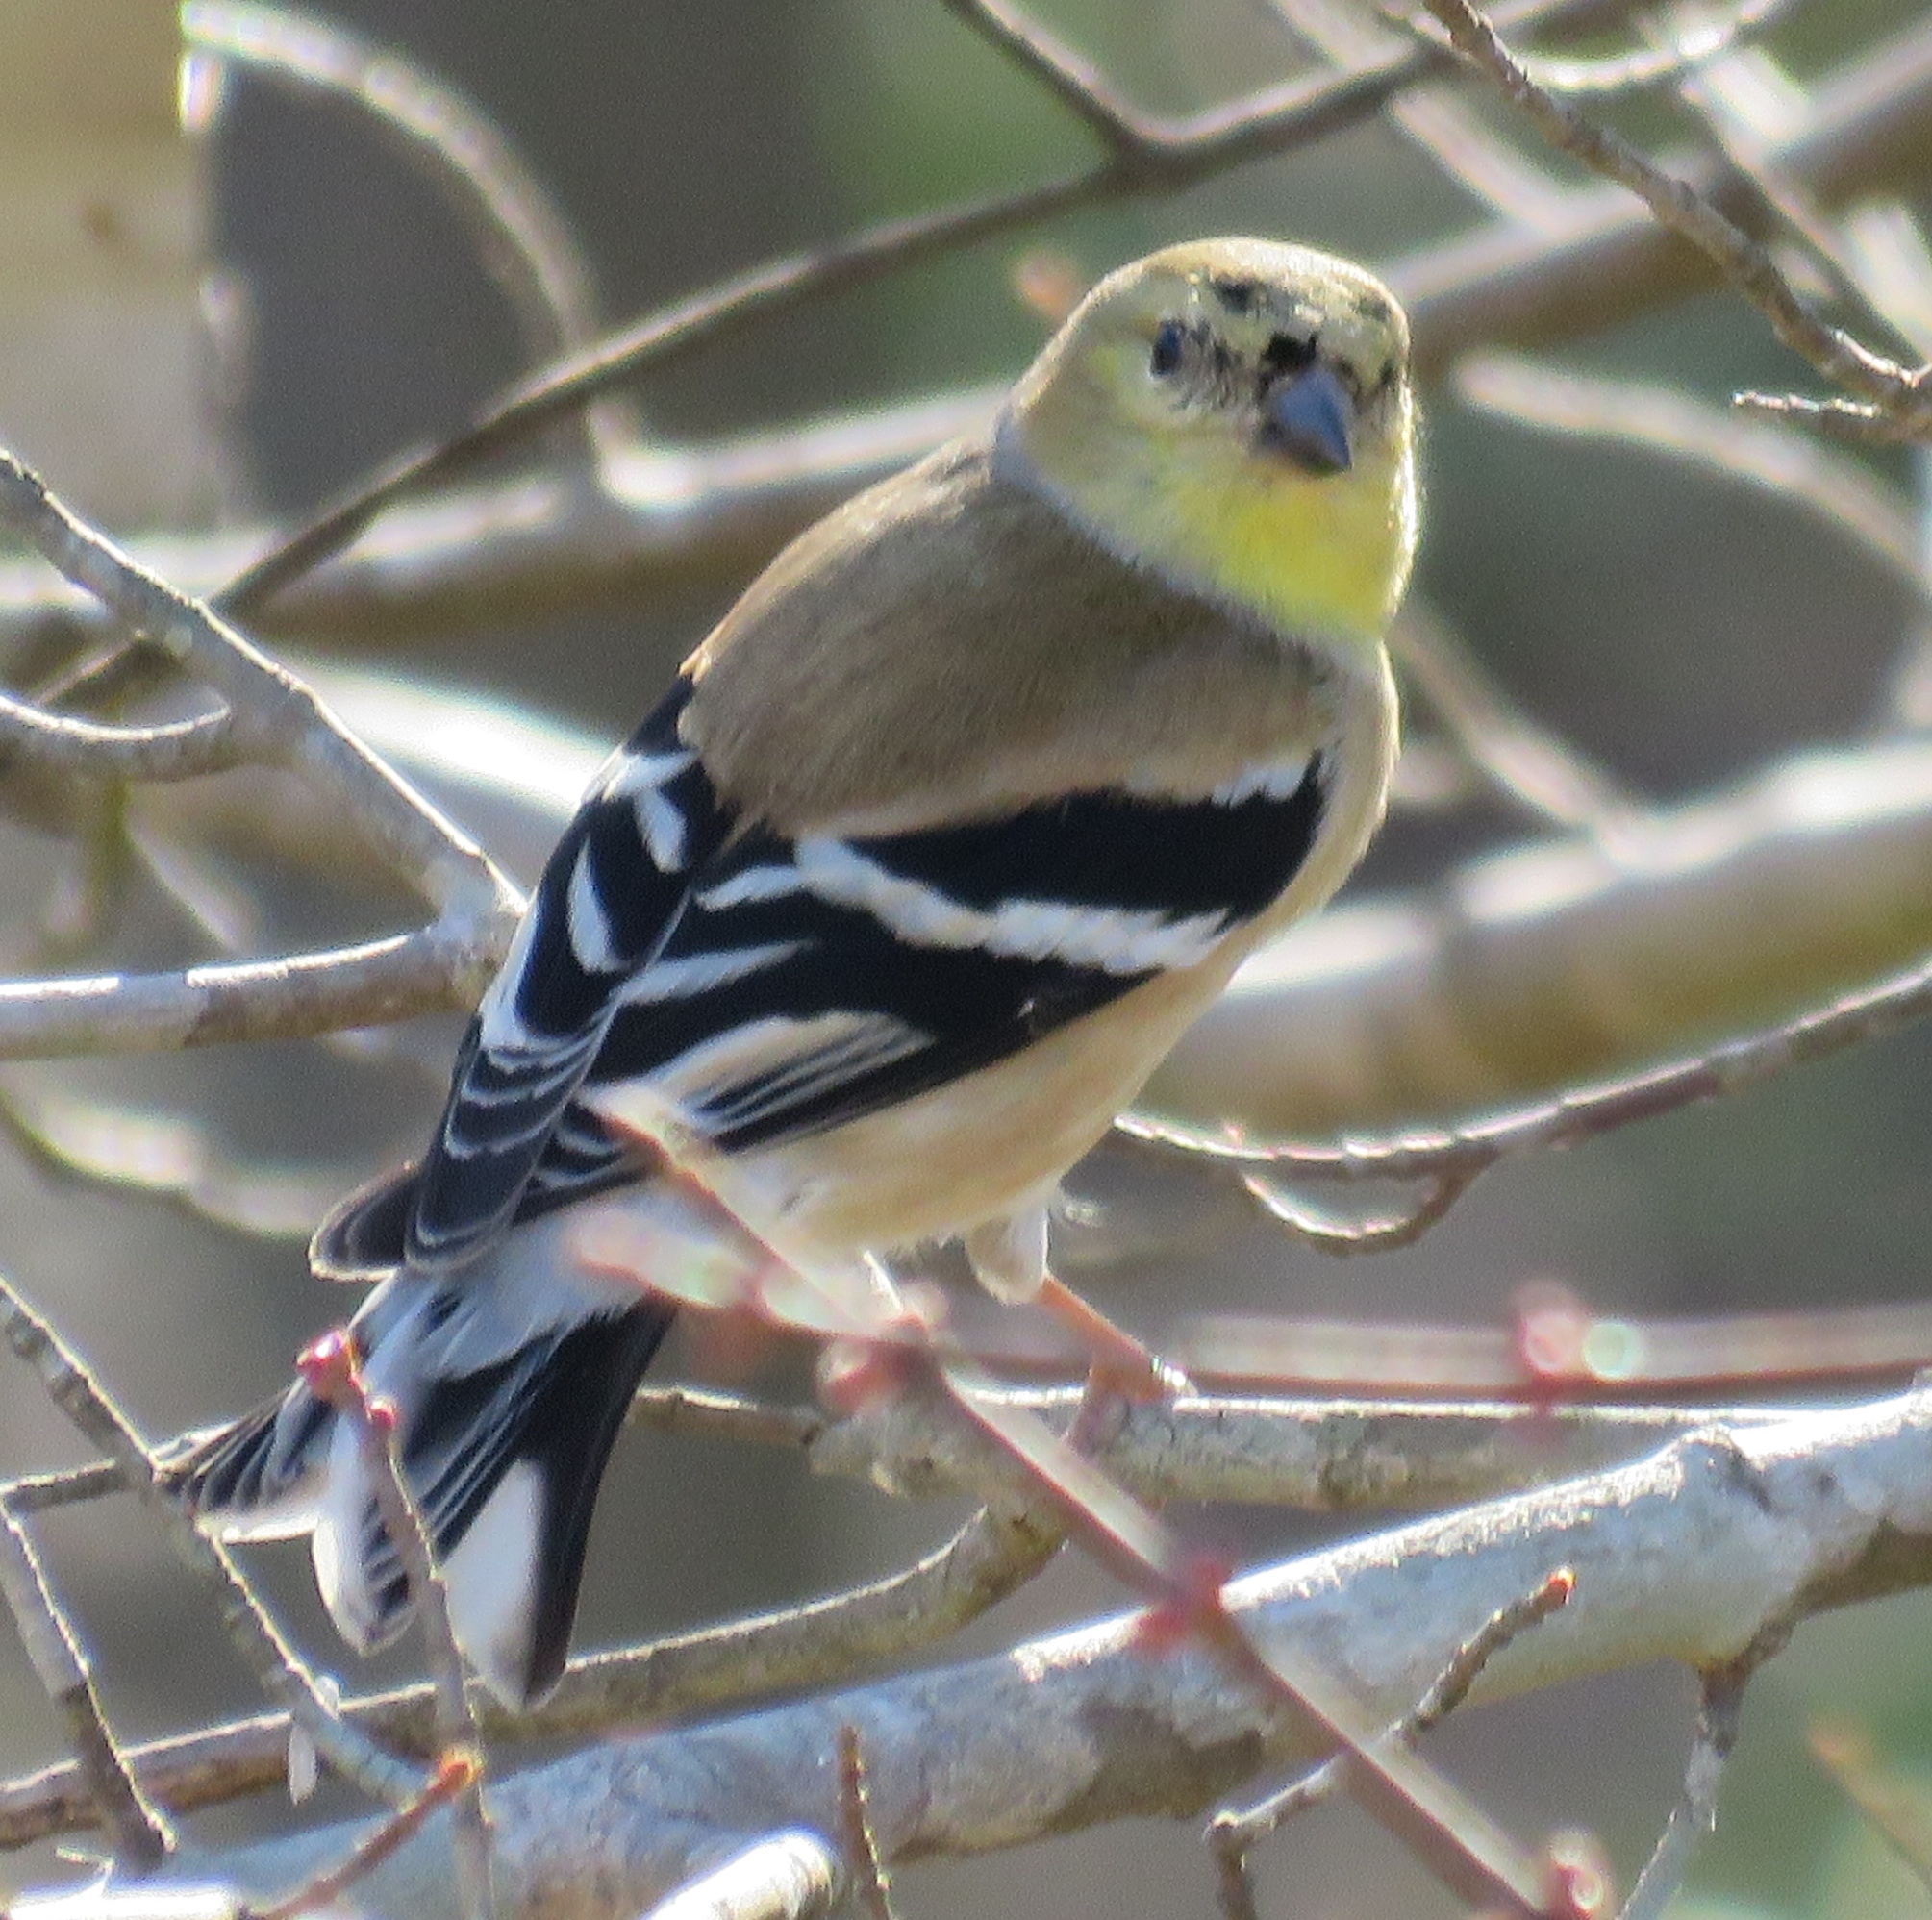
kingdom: Animalia
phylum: Chordata
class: Aves
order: Passeriformes
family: Fringillidae
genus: Spinus
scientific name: Spinus tristis
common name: American goldfinch
